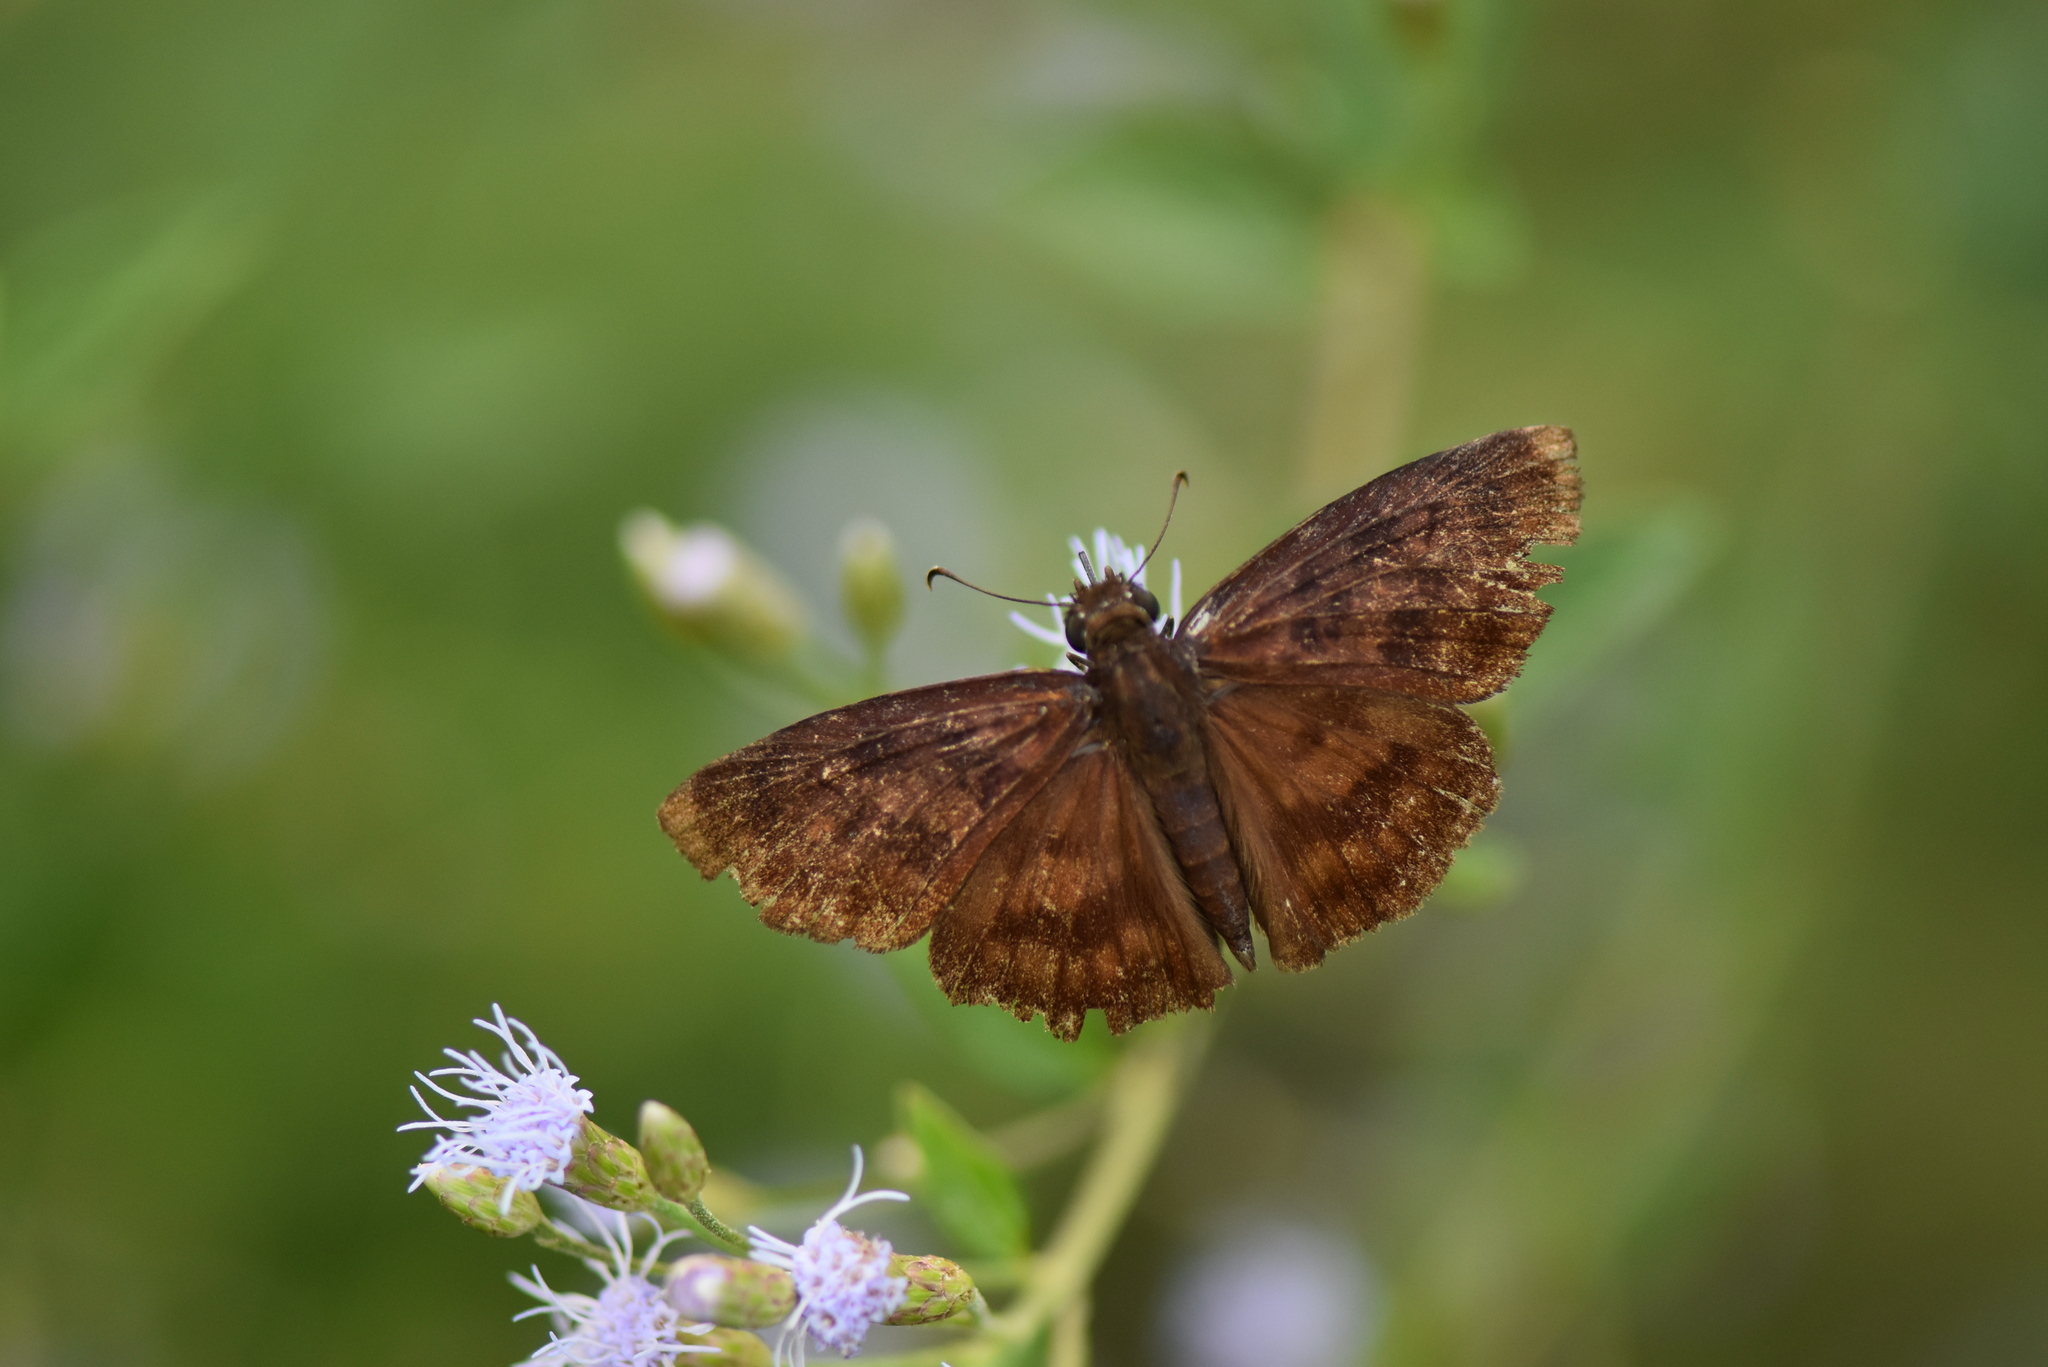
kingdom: Animalia
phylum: Arthropoda
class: Insecta
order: Lepidoptera
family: Hesperiidae
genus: Anastrus
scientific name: Anastrus Echelatus sempiternus
